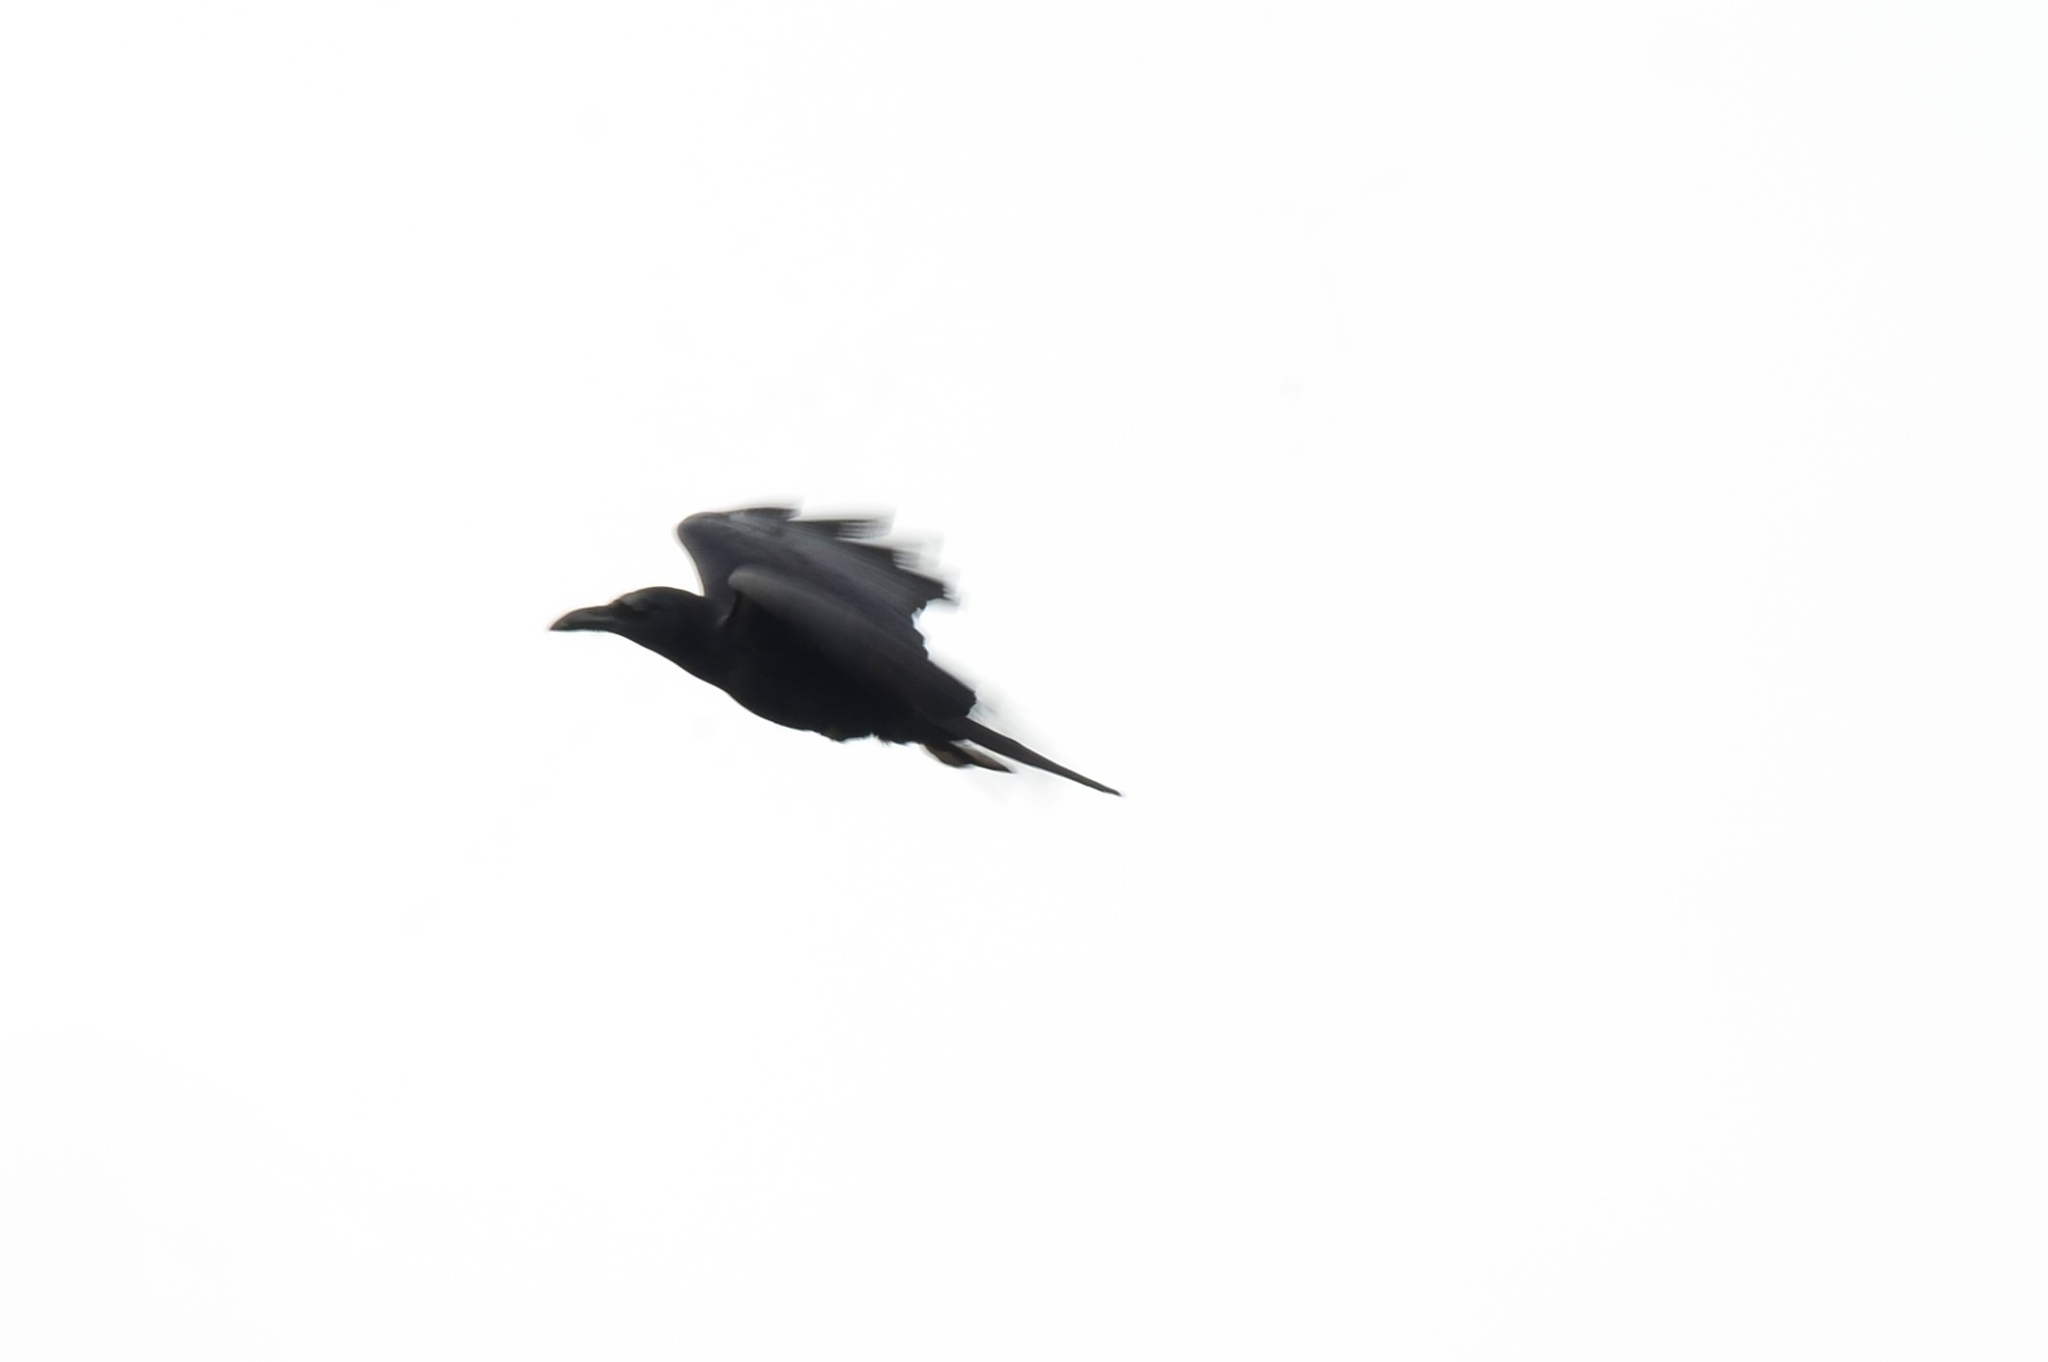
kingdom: Animalia
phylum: Chordata
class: Aves
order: Passeriformes
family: Corvidae
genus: Corvus
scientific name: Corvus macrorhynchos
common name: Large-billed crow
